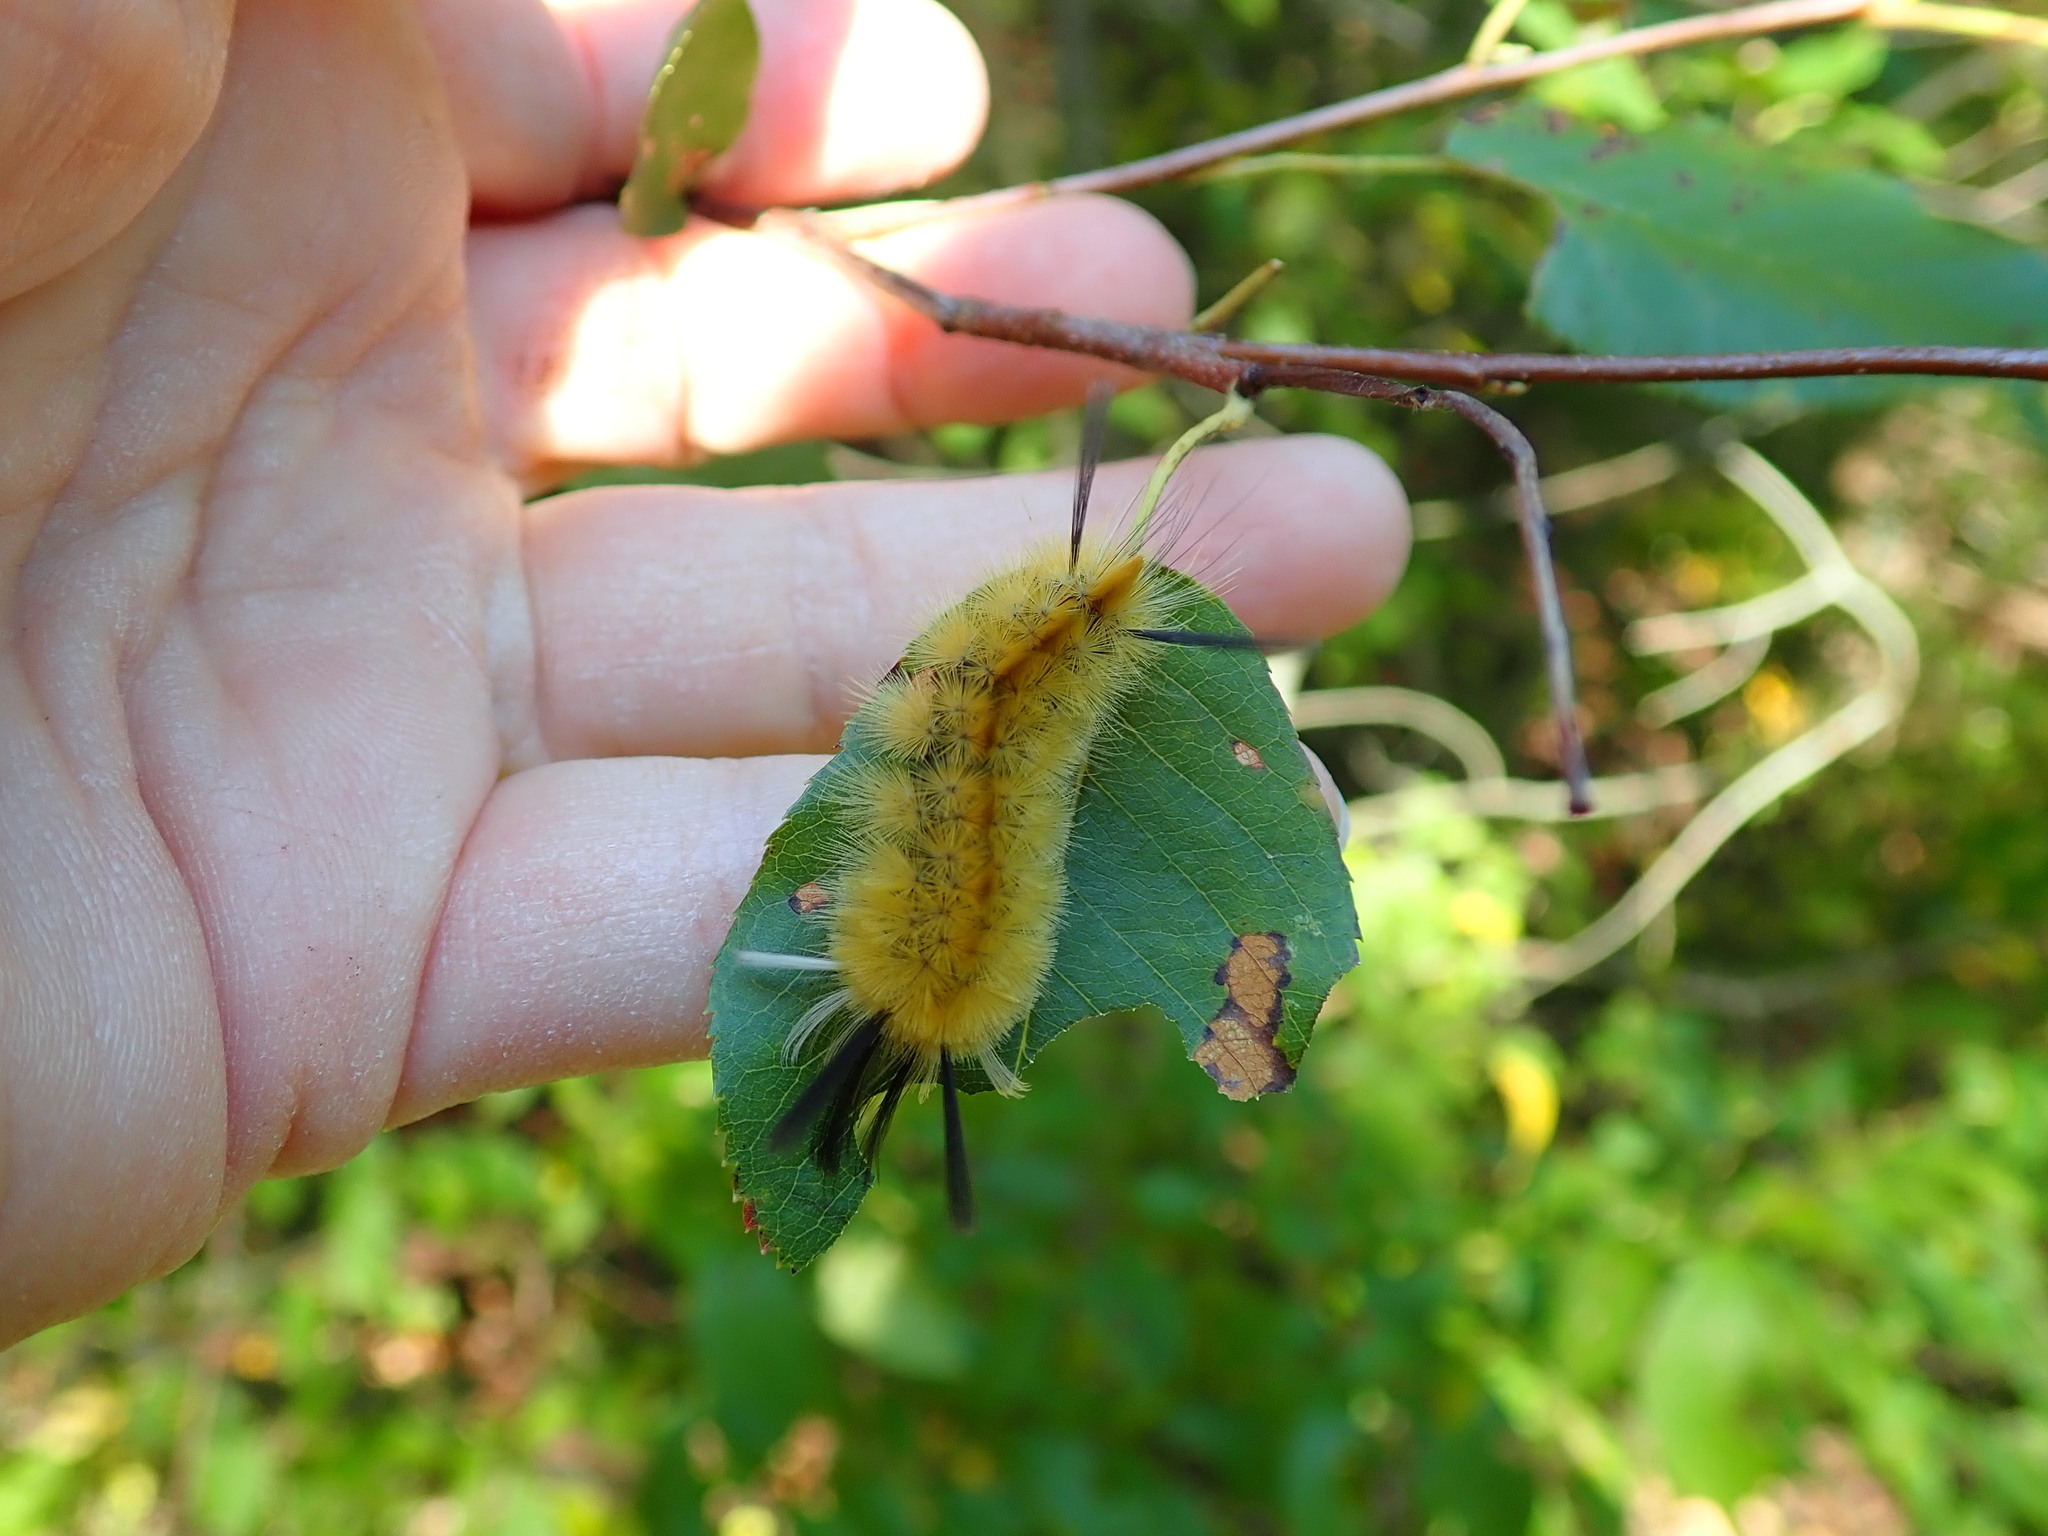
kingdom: Animalia
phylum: Arthropoda
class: Insecta
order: Lepidoptera
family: Erebidae
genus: Halysidota
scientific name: Halysidota tessellaris
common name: Banded tussock moth
